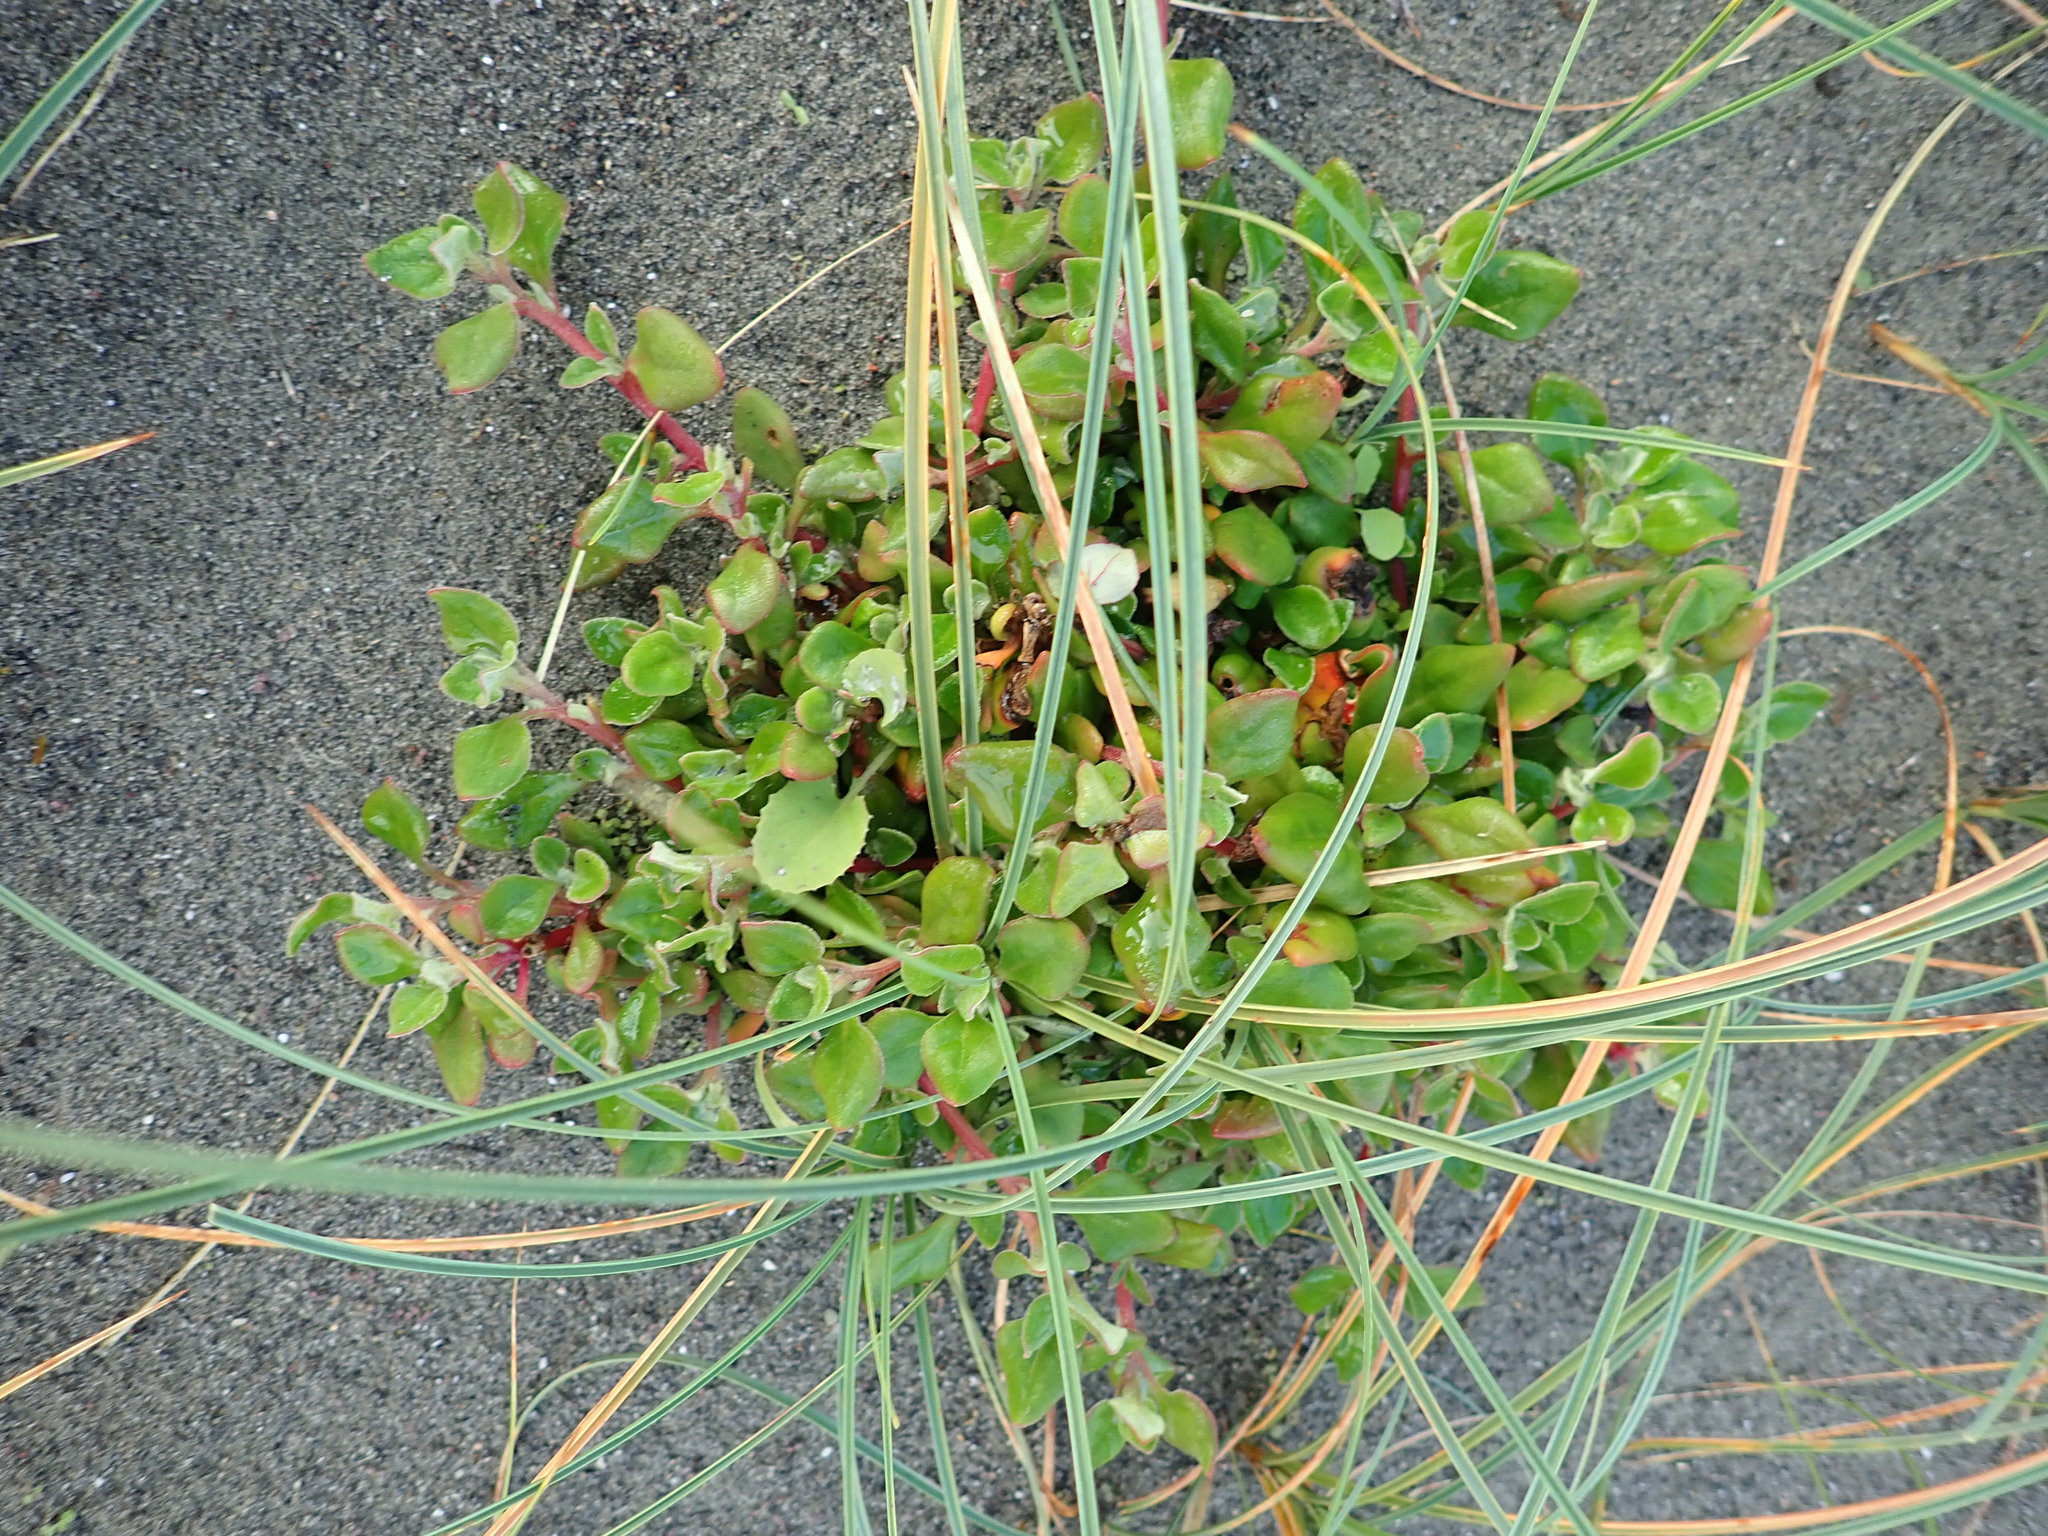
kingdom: Plantae
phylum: Tracheophyta
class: Magnoliopsida
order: Caryophyllales
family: Aizoaceae
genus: Tetragonia
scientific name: Tetragonia implexicoma
